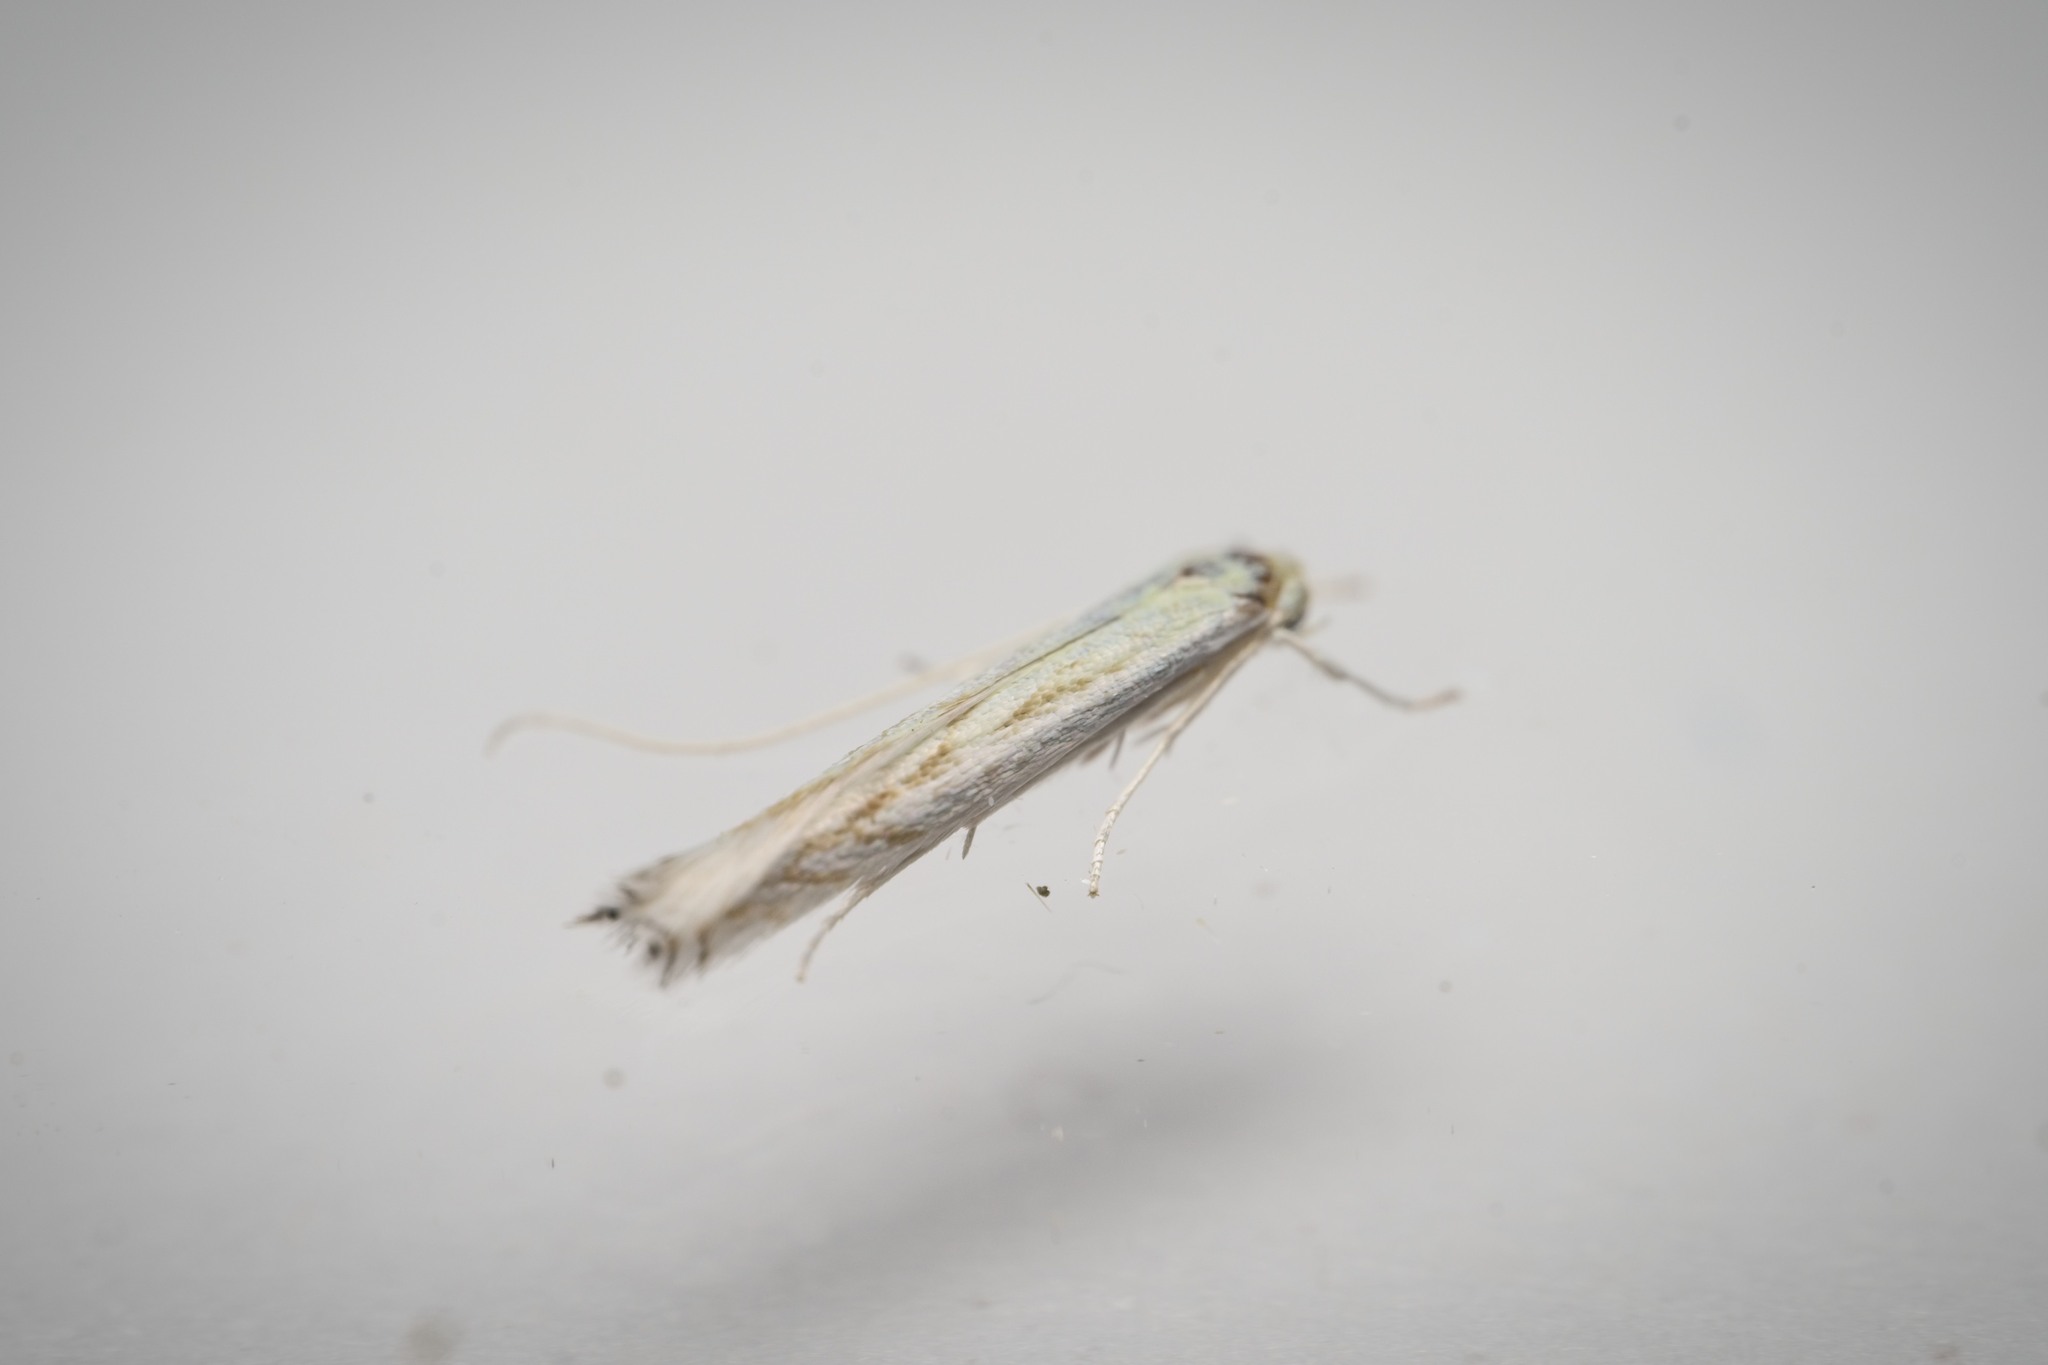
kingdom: Animalia
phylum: Arthropoda
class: Insecta
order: Lepidoptera
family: Lyonetiidae
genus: Stegommata
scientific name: Stegommata sulfuratella
